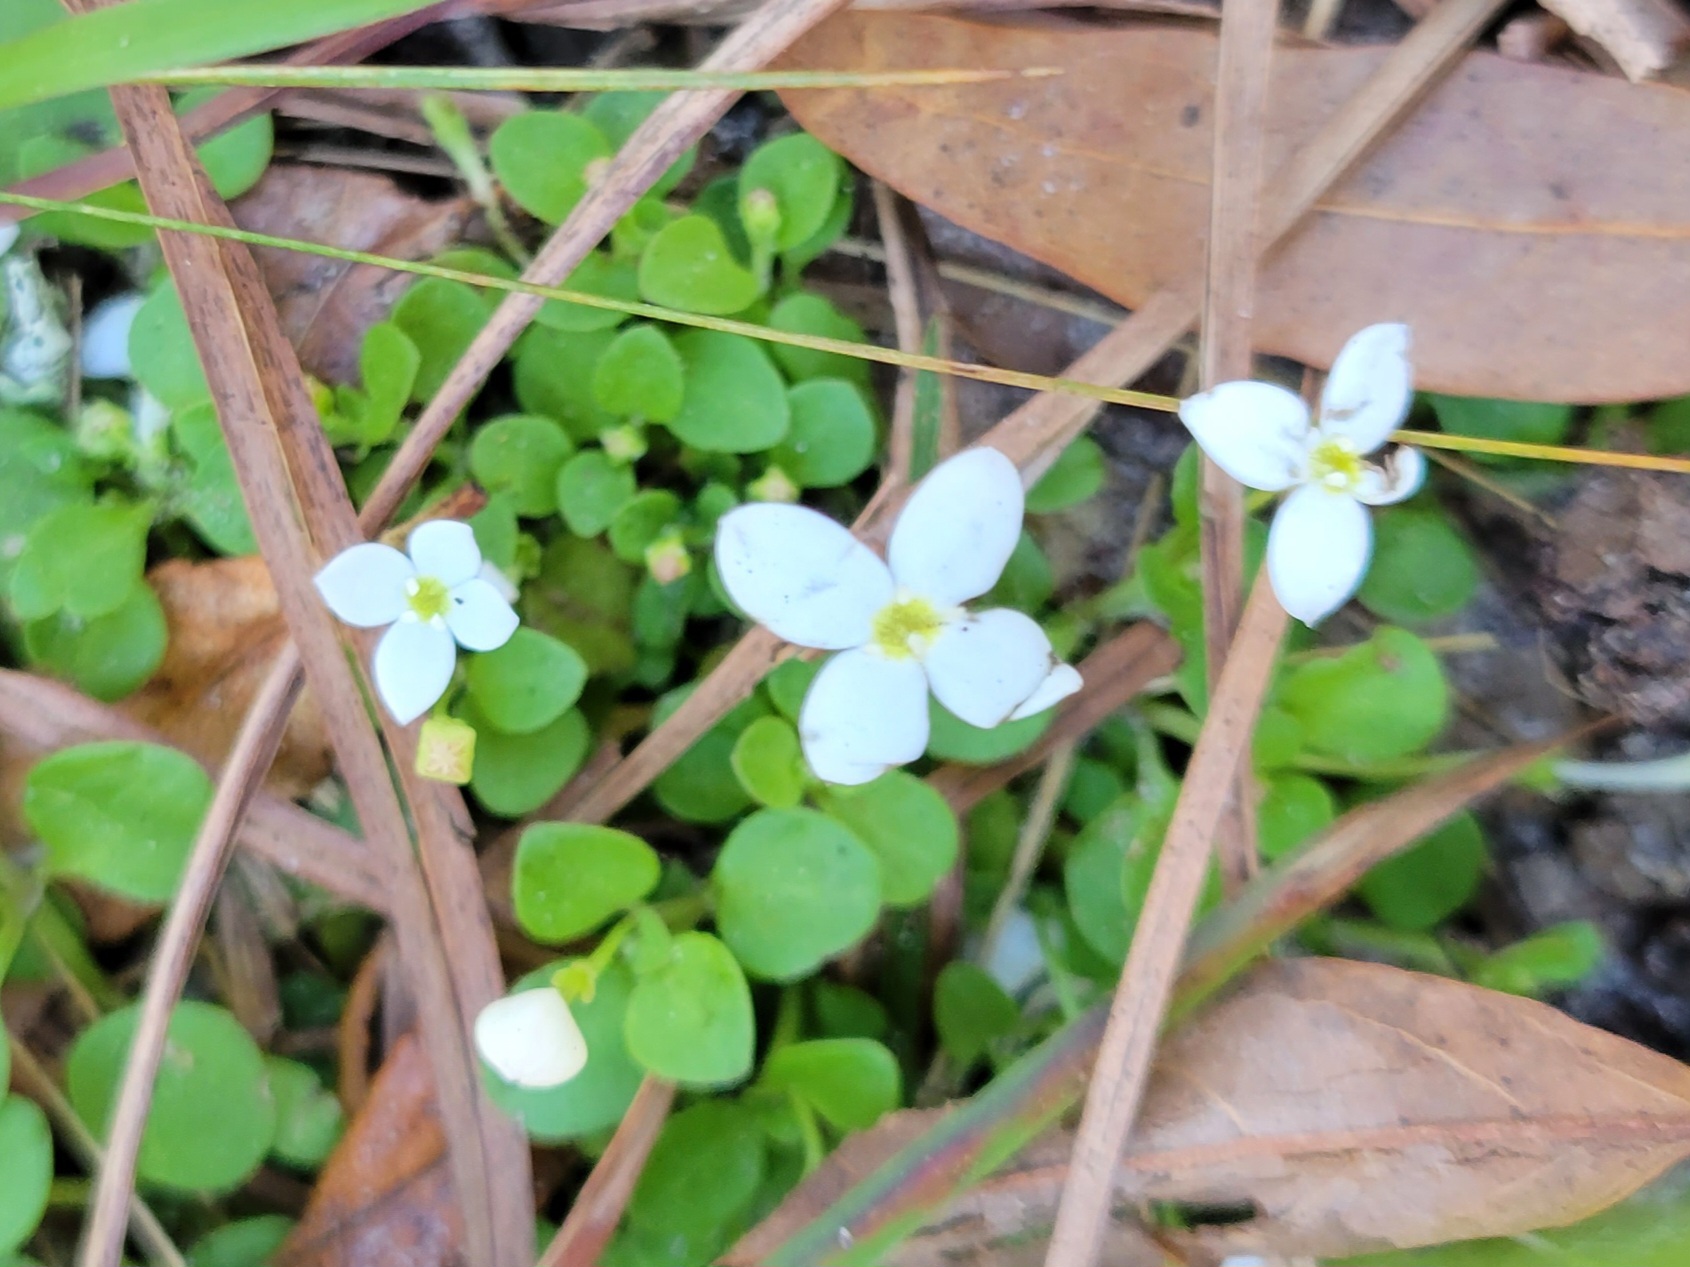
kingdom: Plantae
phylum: Tracheophyta
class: Magnoliopsida
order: Gentianales
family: Rubiaceae
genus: Houstonia
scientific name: Houstonia procumbens
